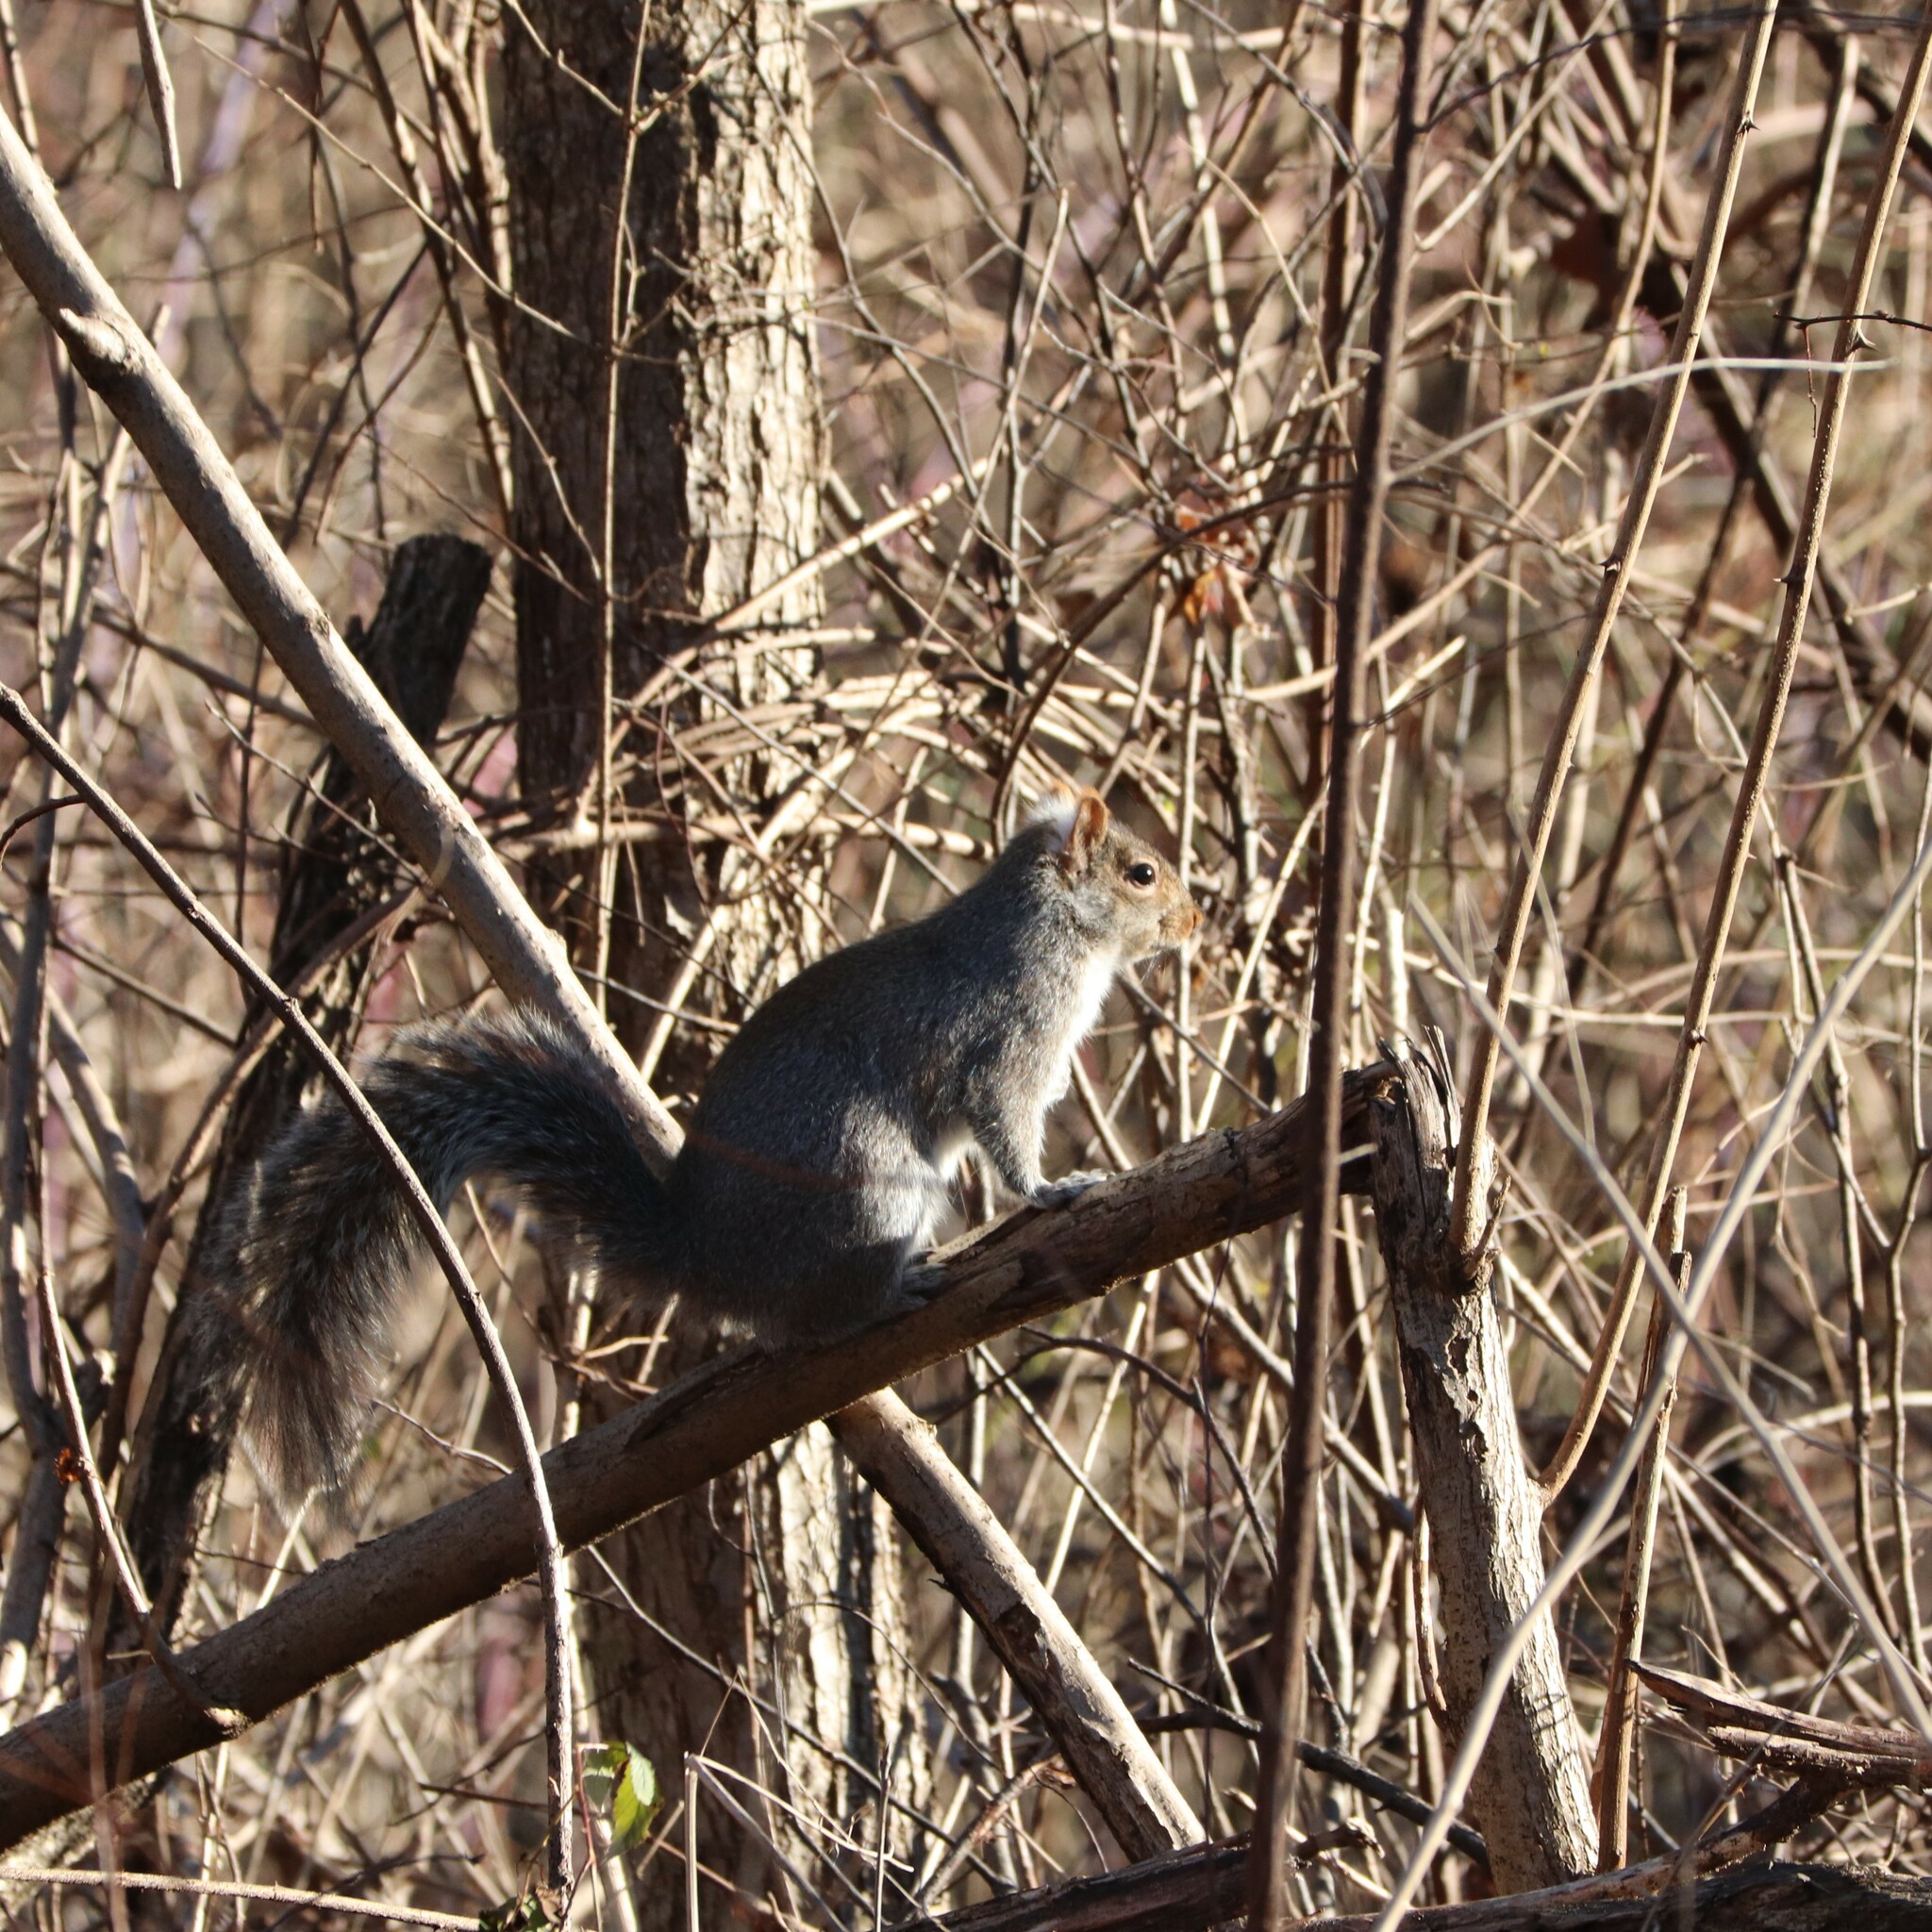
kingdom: Animalia
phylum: Chordata
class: Mammalia
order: Rodentia
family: Sciuridae
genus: Sciurus
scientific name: Sciurus carolinensis
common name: Eastern gray squirrel
